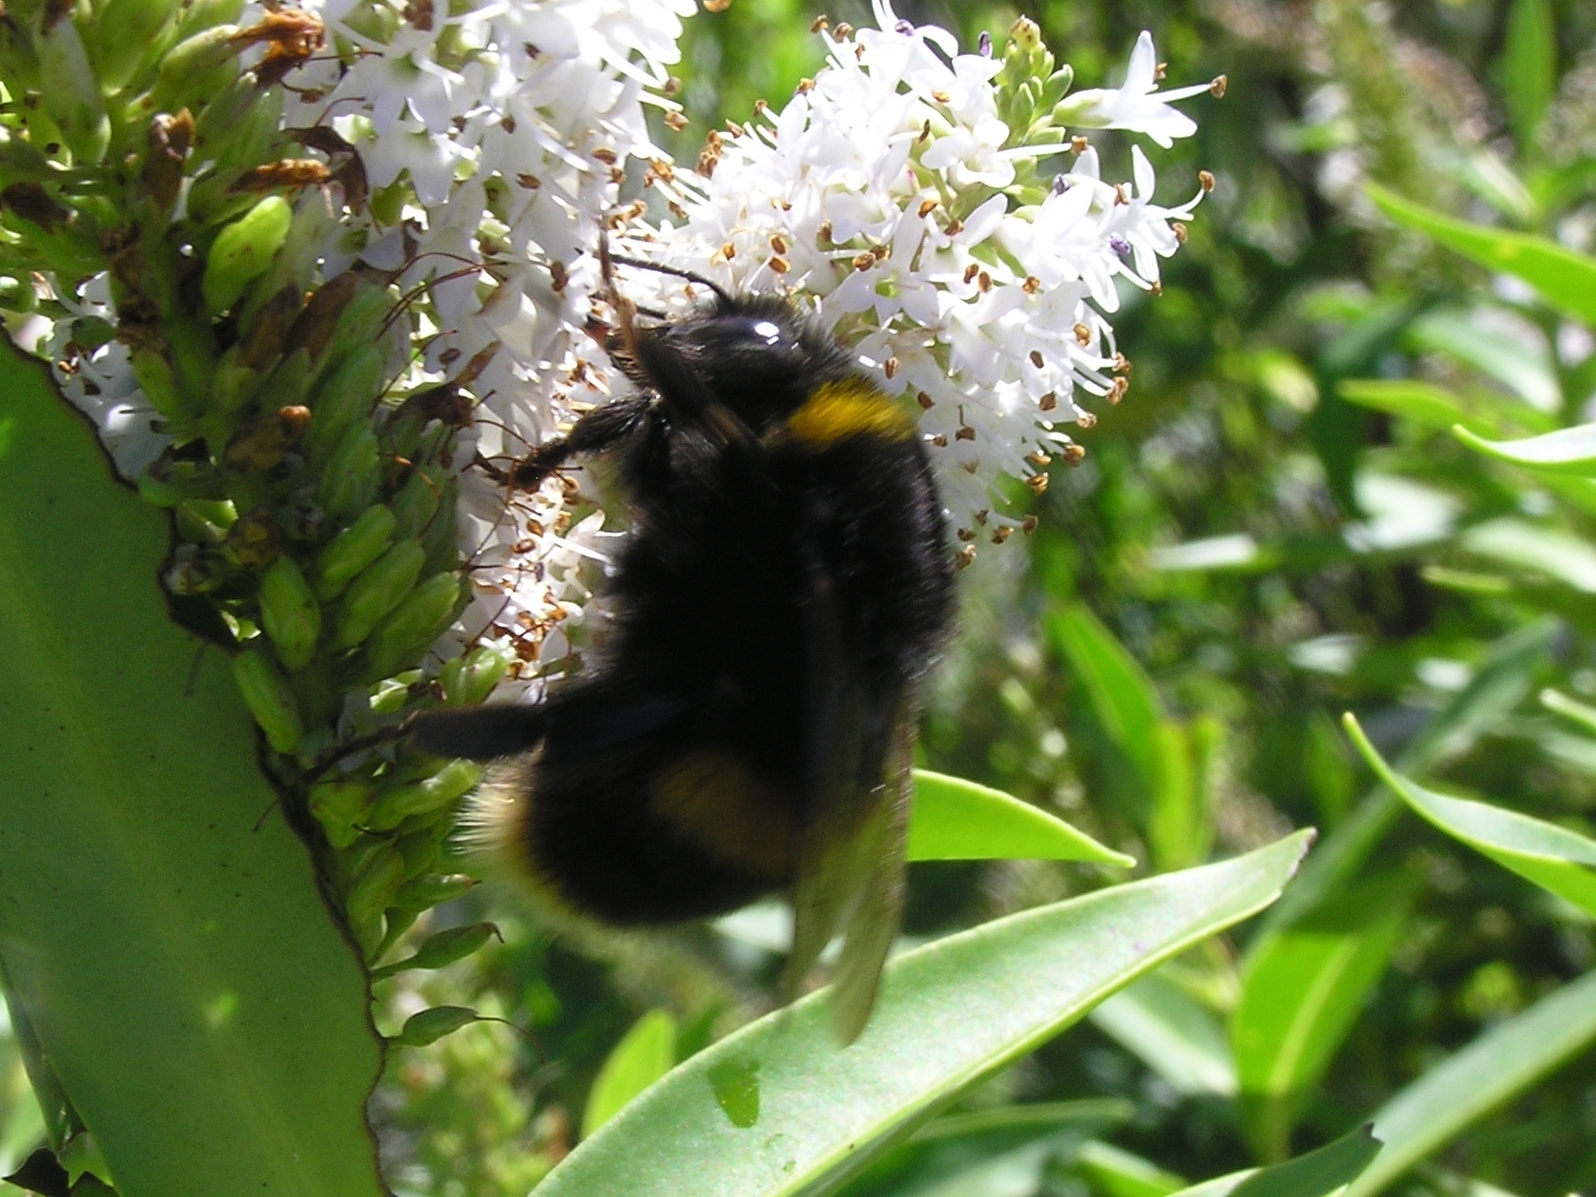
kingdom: Animalia
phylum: Arthropoda
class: Insecta
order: Hymenoptera
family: Apidae
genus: Bombus
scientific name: Bombus terrestris
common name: Buff-tailed bumblebee
